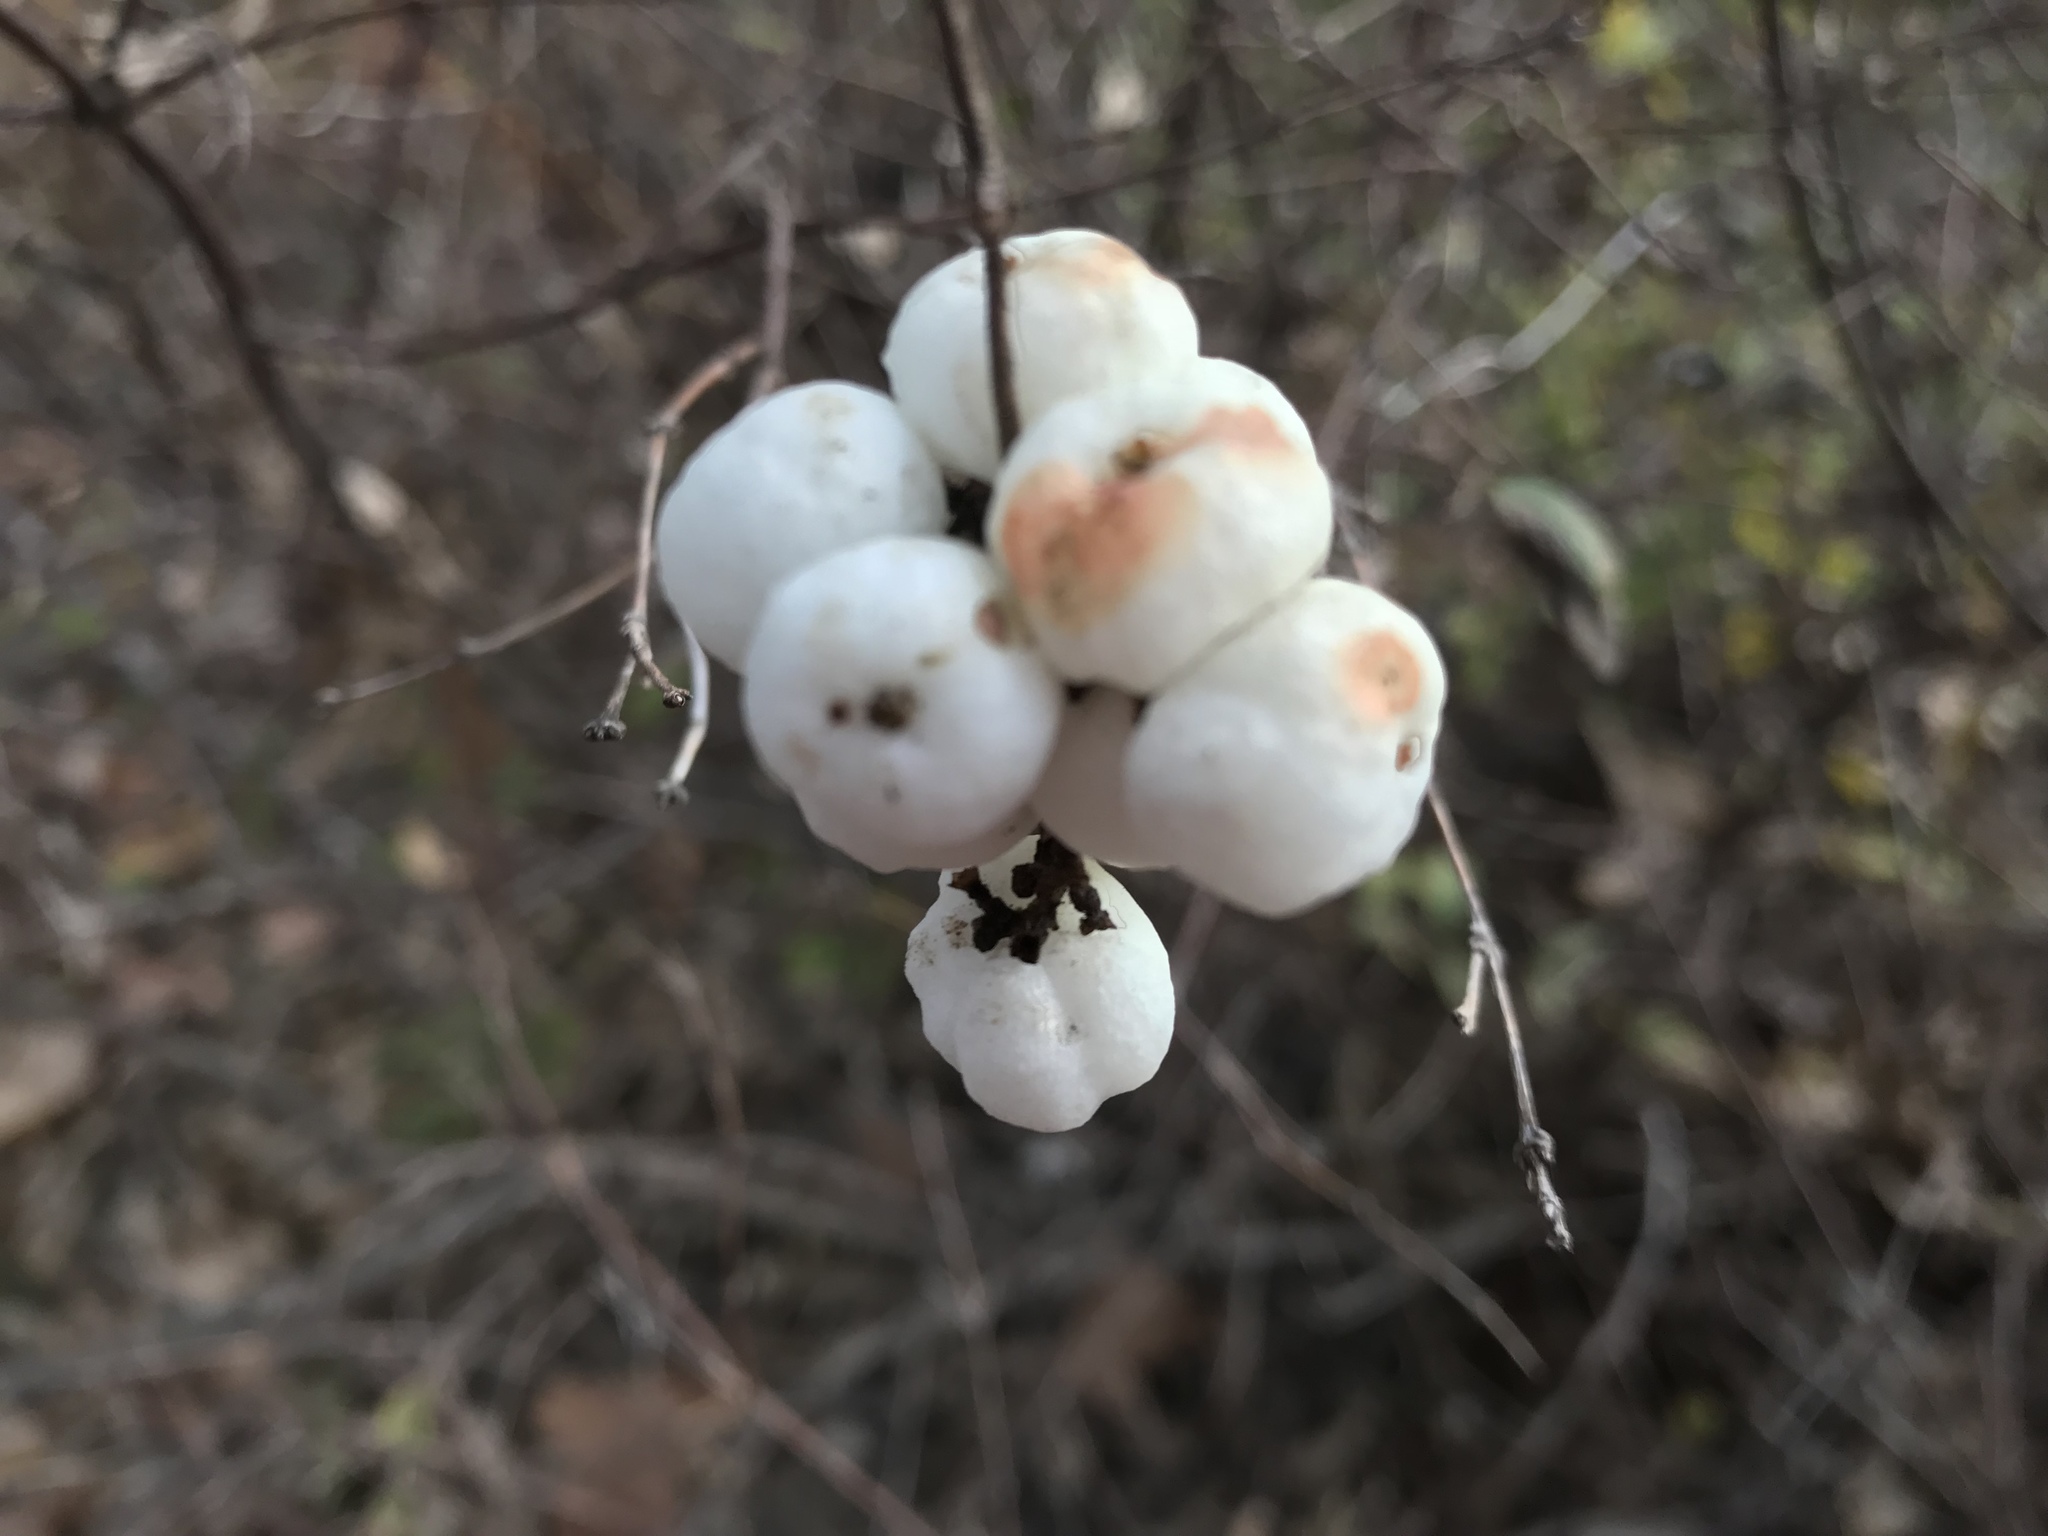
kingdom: Plantae
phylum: Tracheophyta
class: Magnoliopsida
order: Dipsacales
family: Caprifoliaceae
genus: Symphoricarpos
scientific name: Symphoricarpos albus
